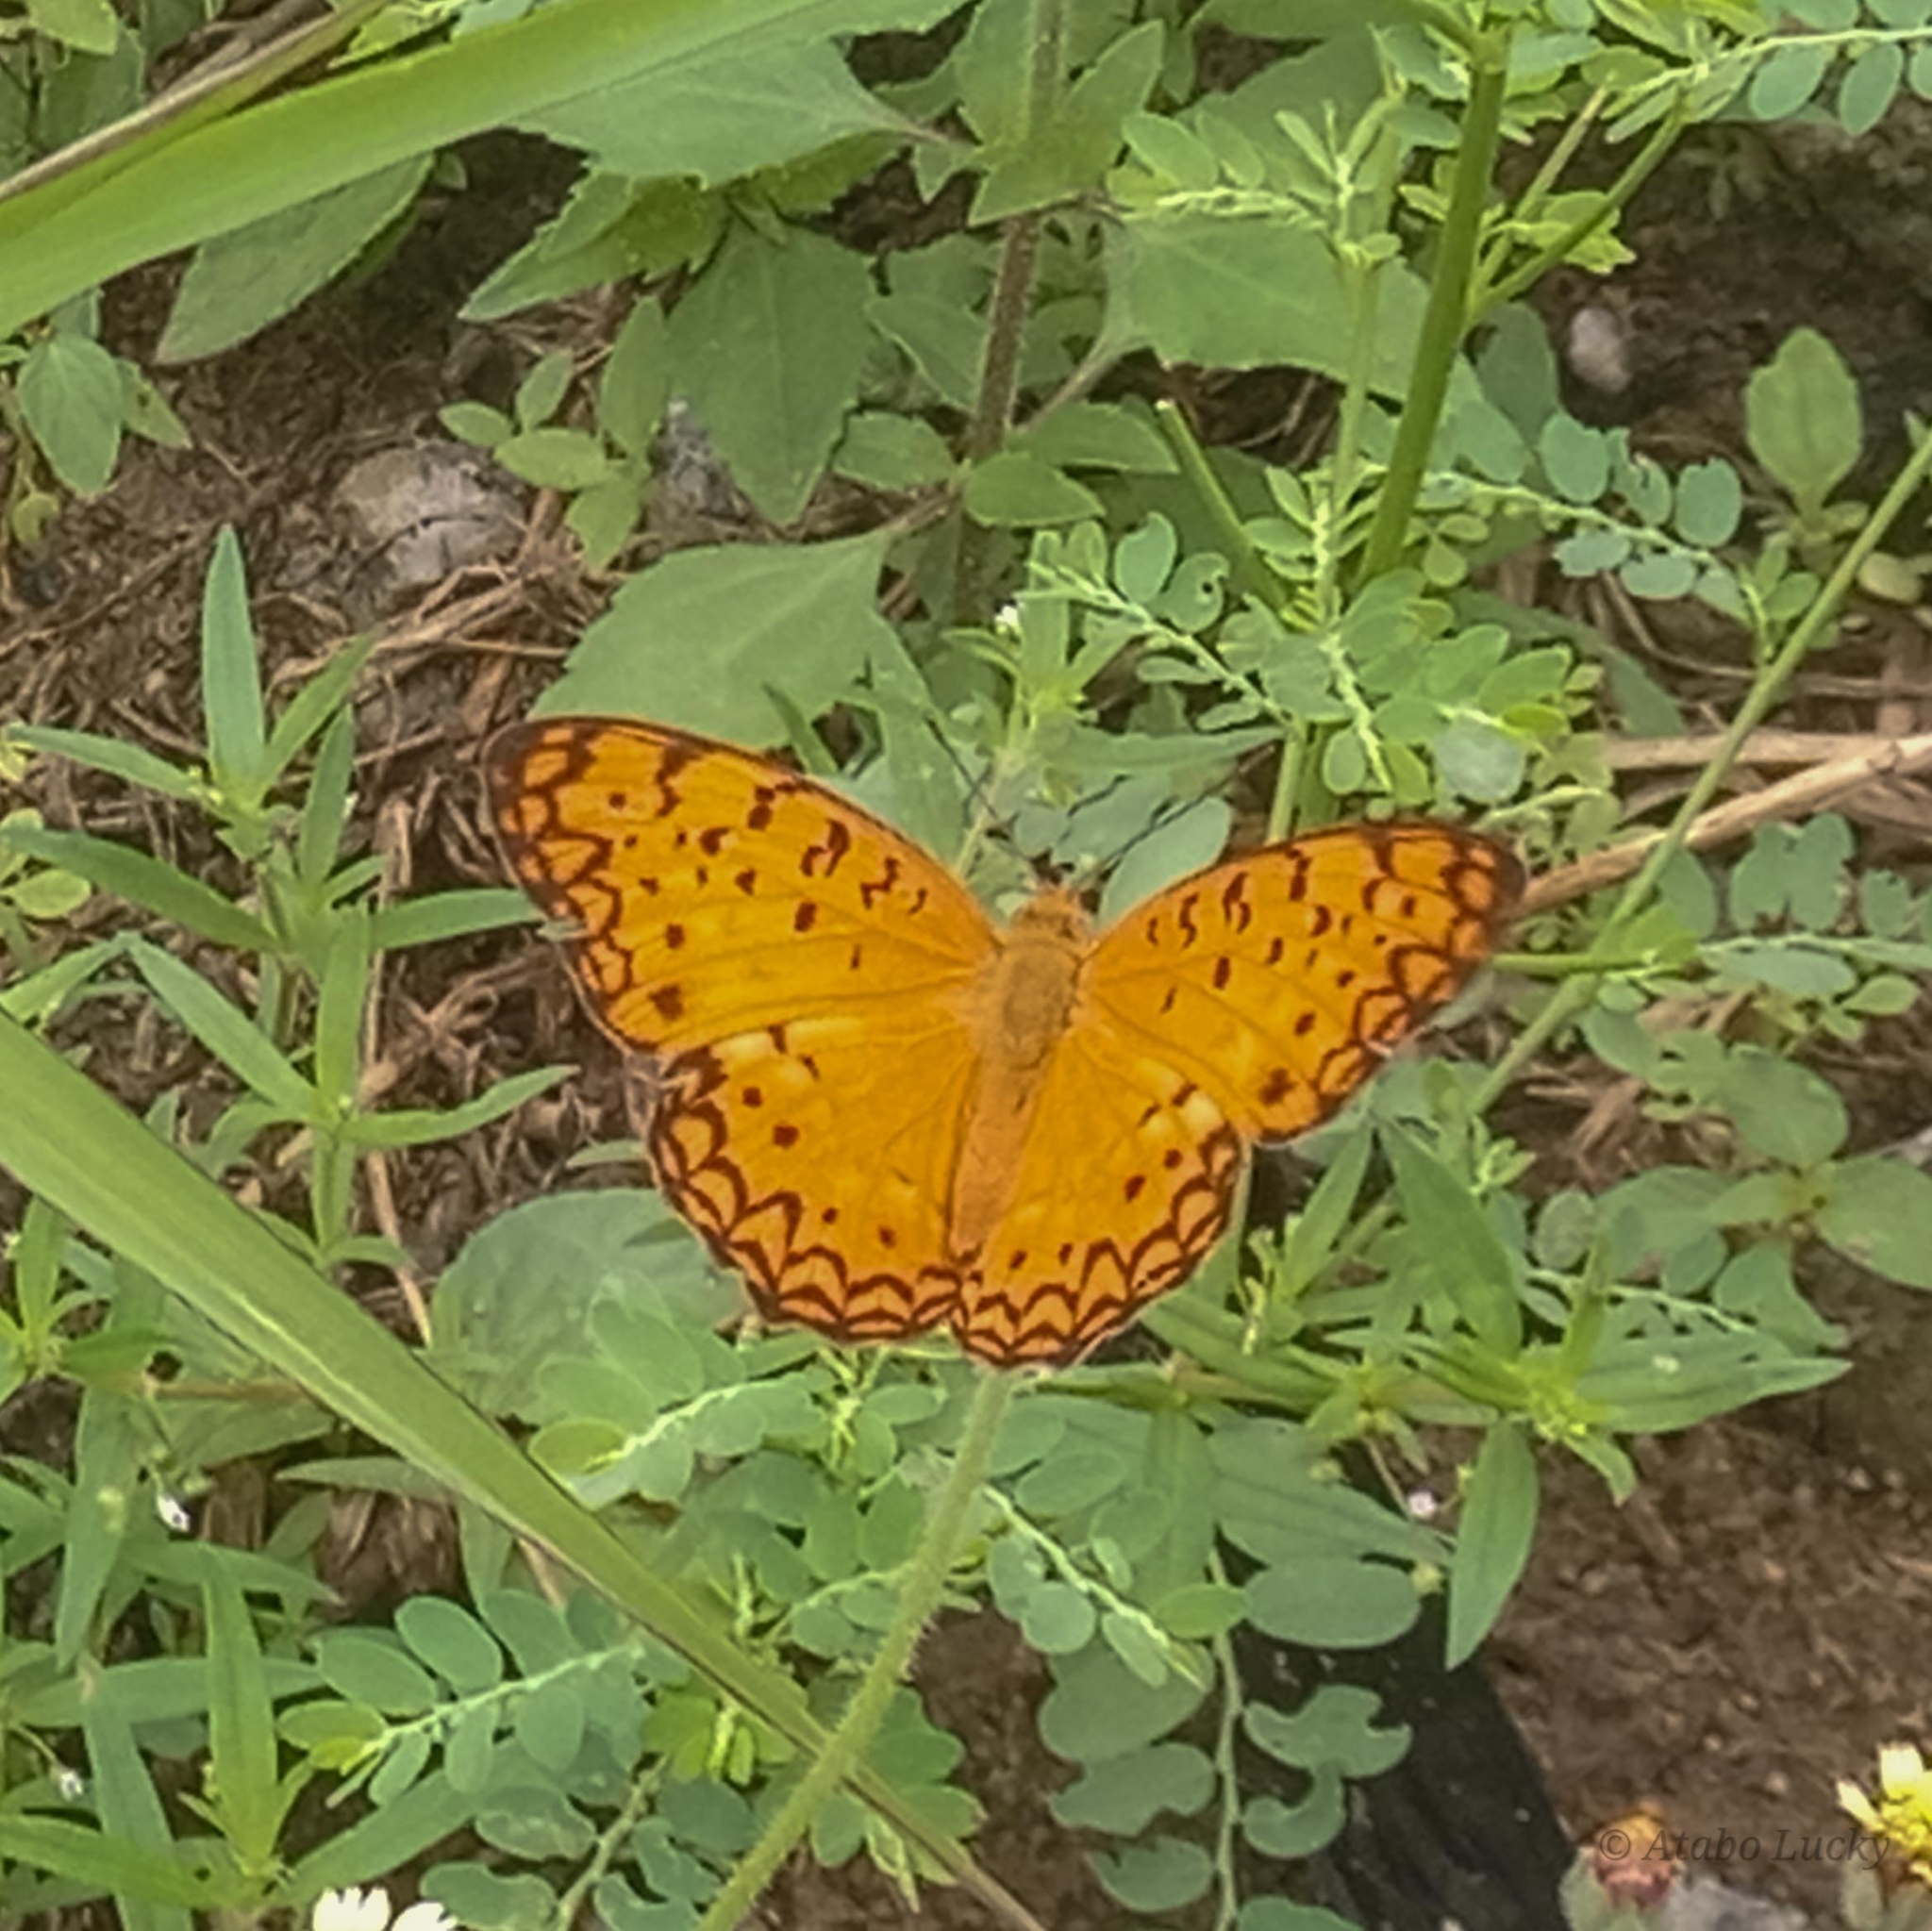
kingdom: Animalia
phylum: Arthropoda
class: Insecta
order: Lepidoptera
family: Nymphalidae
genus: Phalanta
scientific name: Phalanta phalantha
